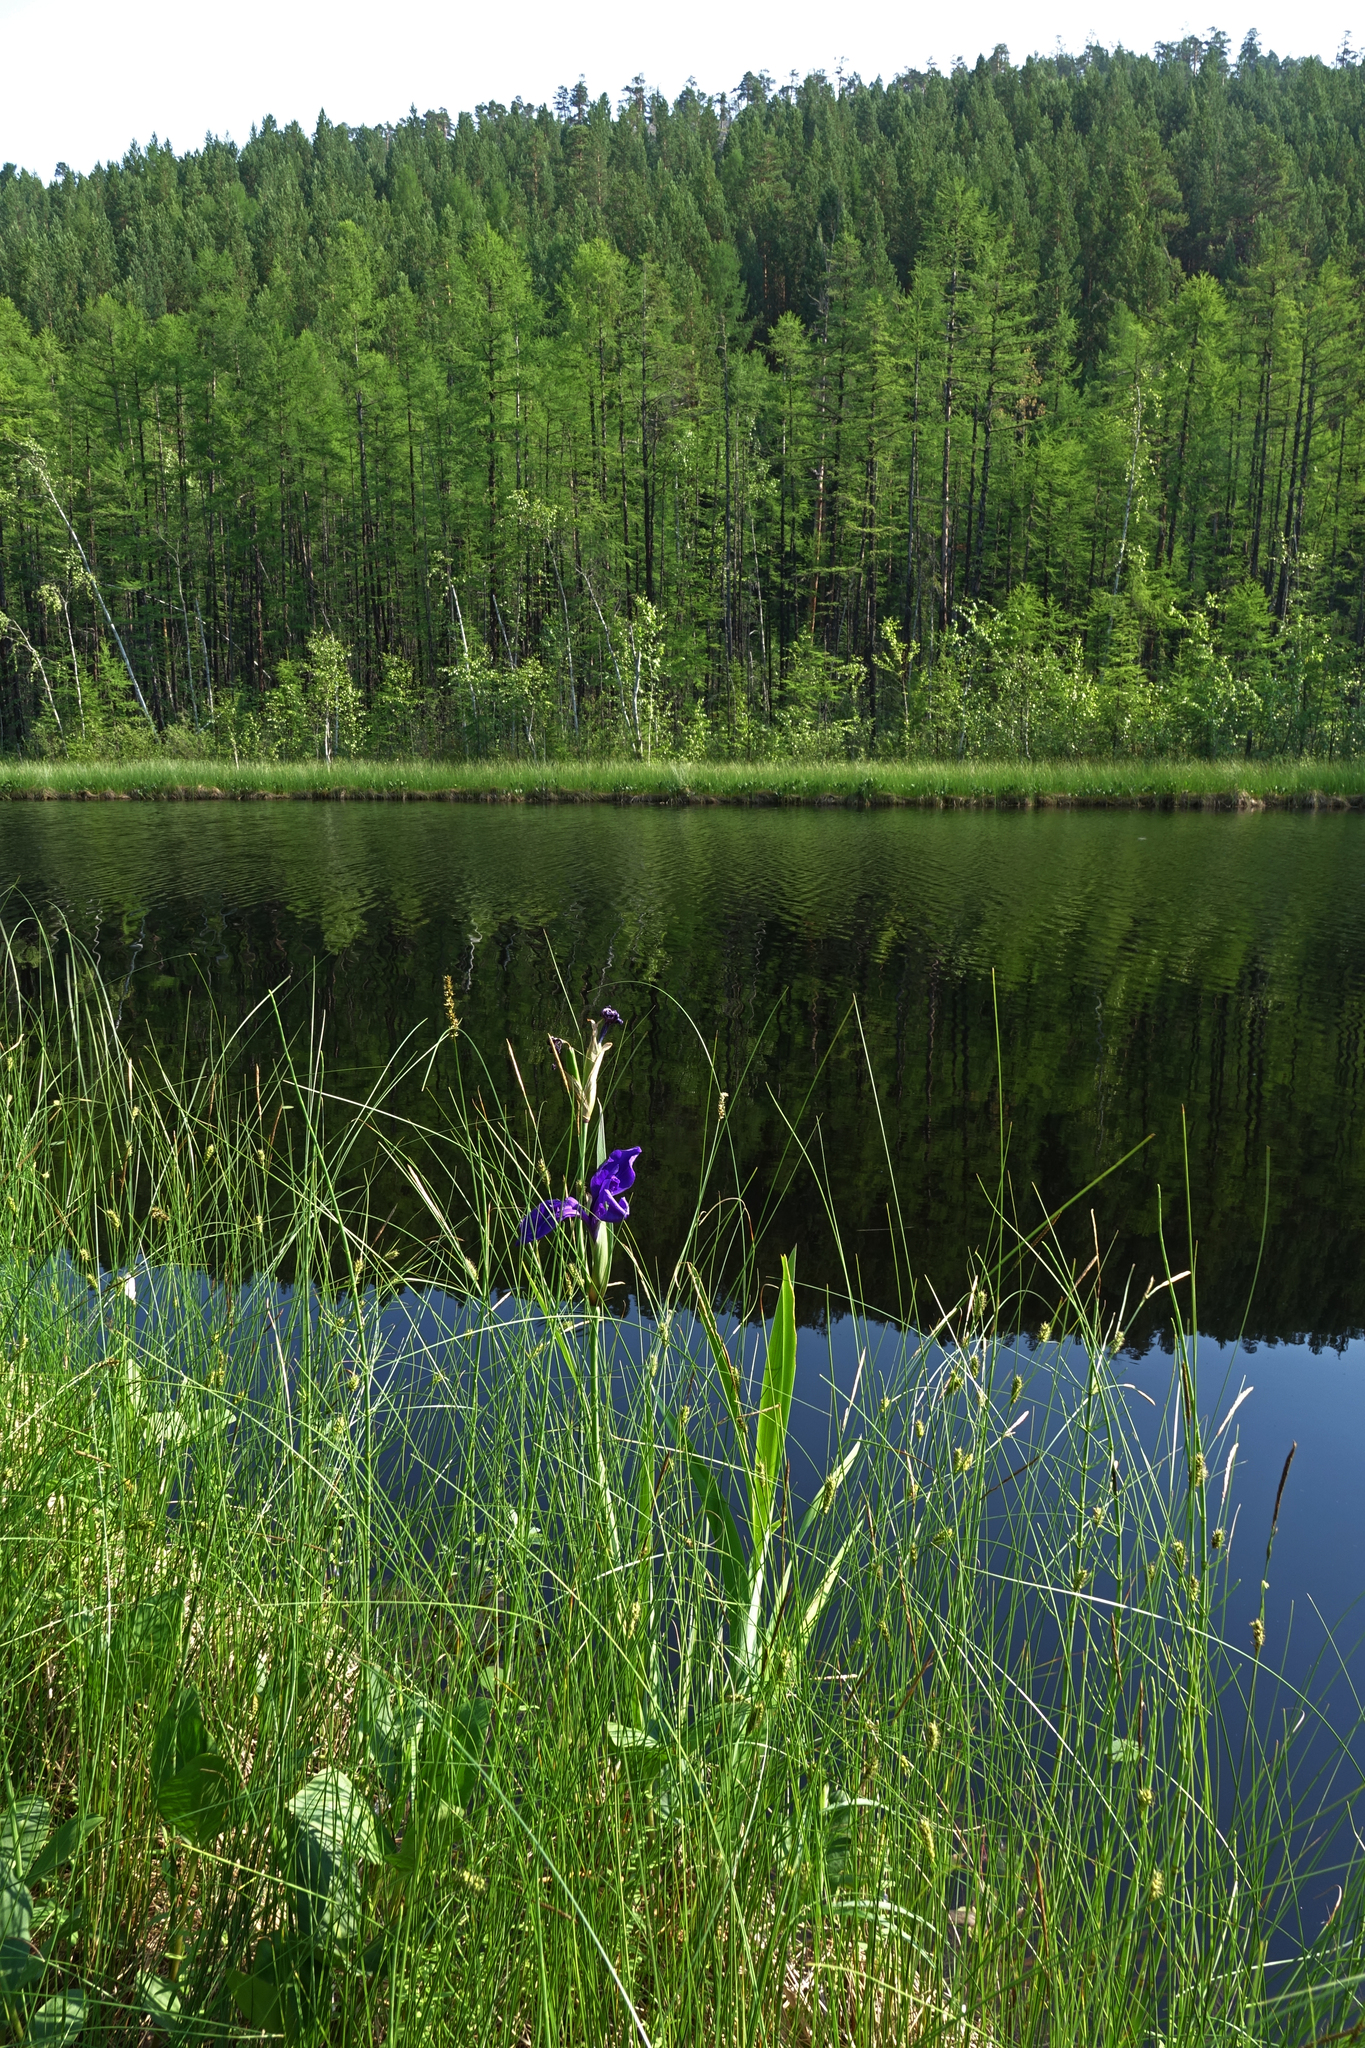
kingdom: Plantae
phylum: Tracheophyta
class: Liliopsida
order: Asparagales
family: Iridaceae
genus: Iris
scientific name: Iris laevigata
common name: Japanese iris
